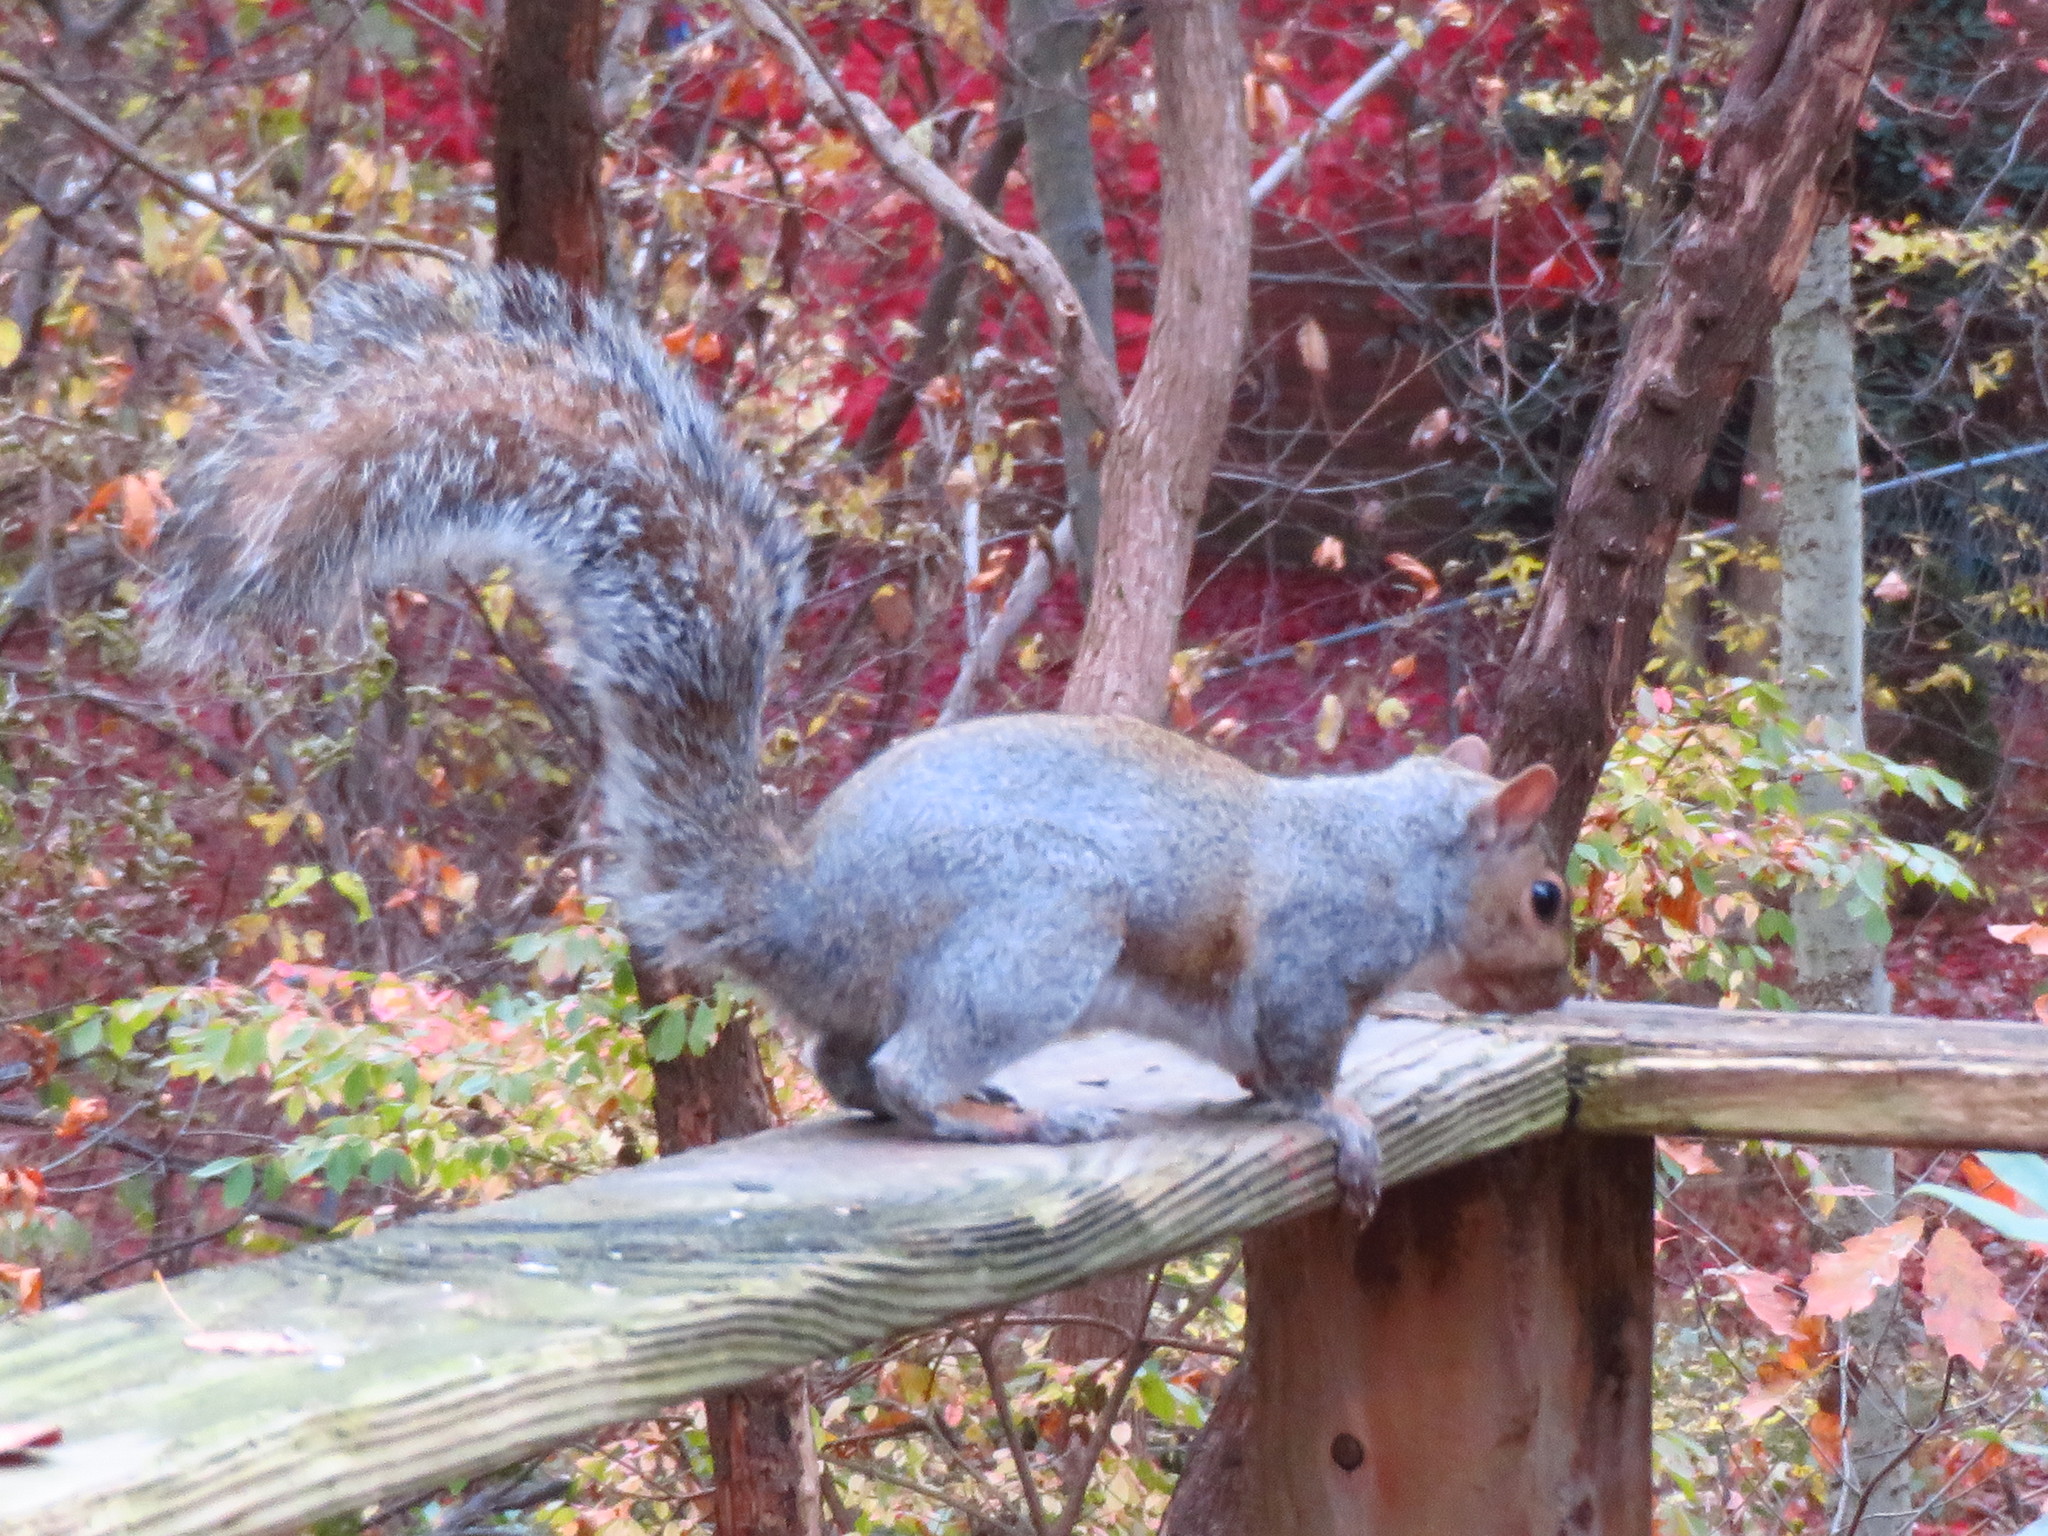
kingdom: Animalia
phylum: Chordata
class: Mammalia
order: Rodentia
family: Sciuridae
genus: Sciurus
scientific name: Sciurus carolinensis
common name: Eastern gray squirrel
